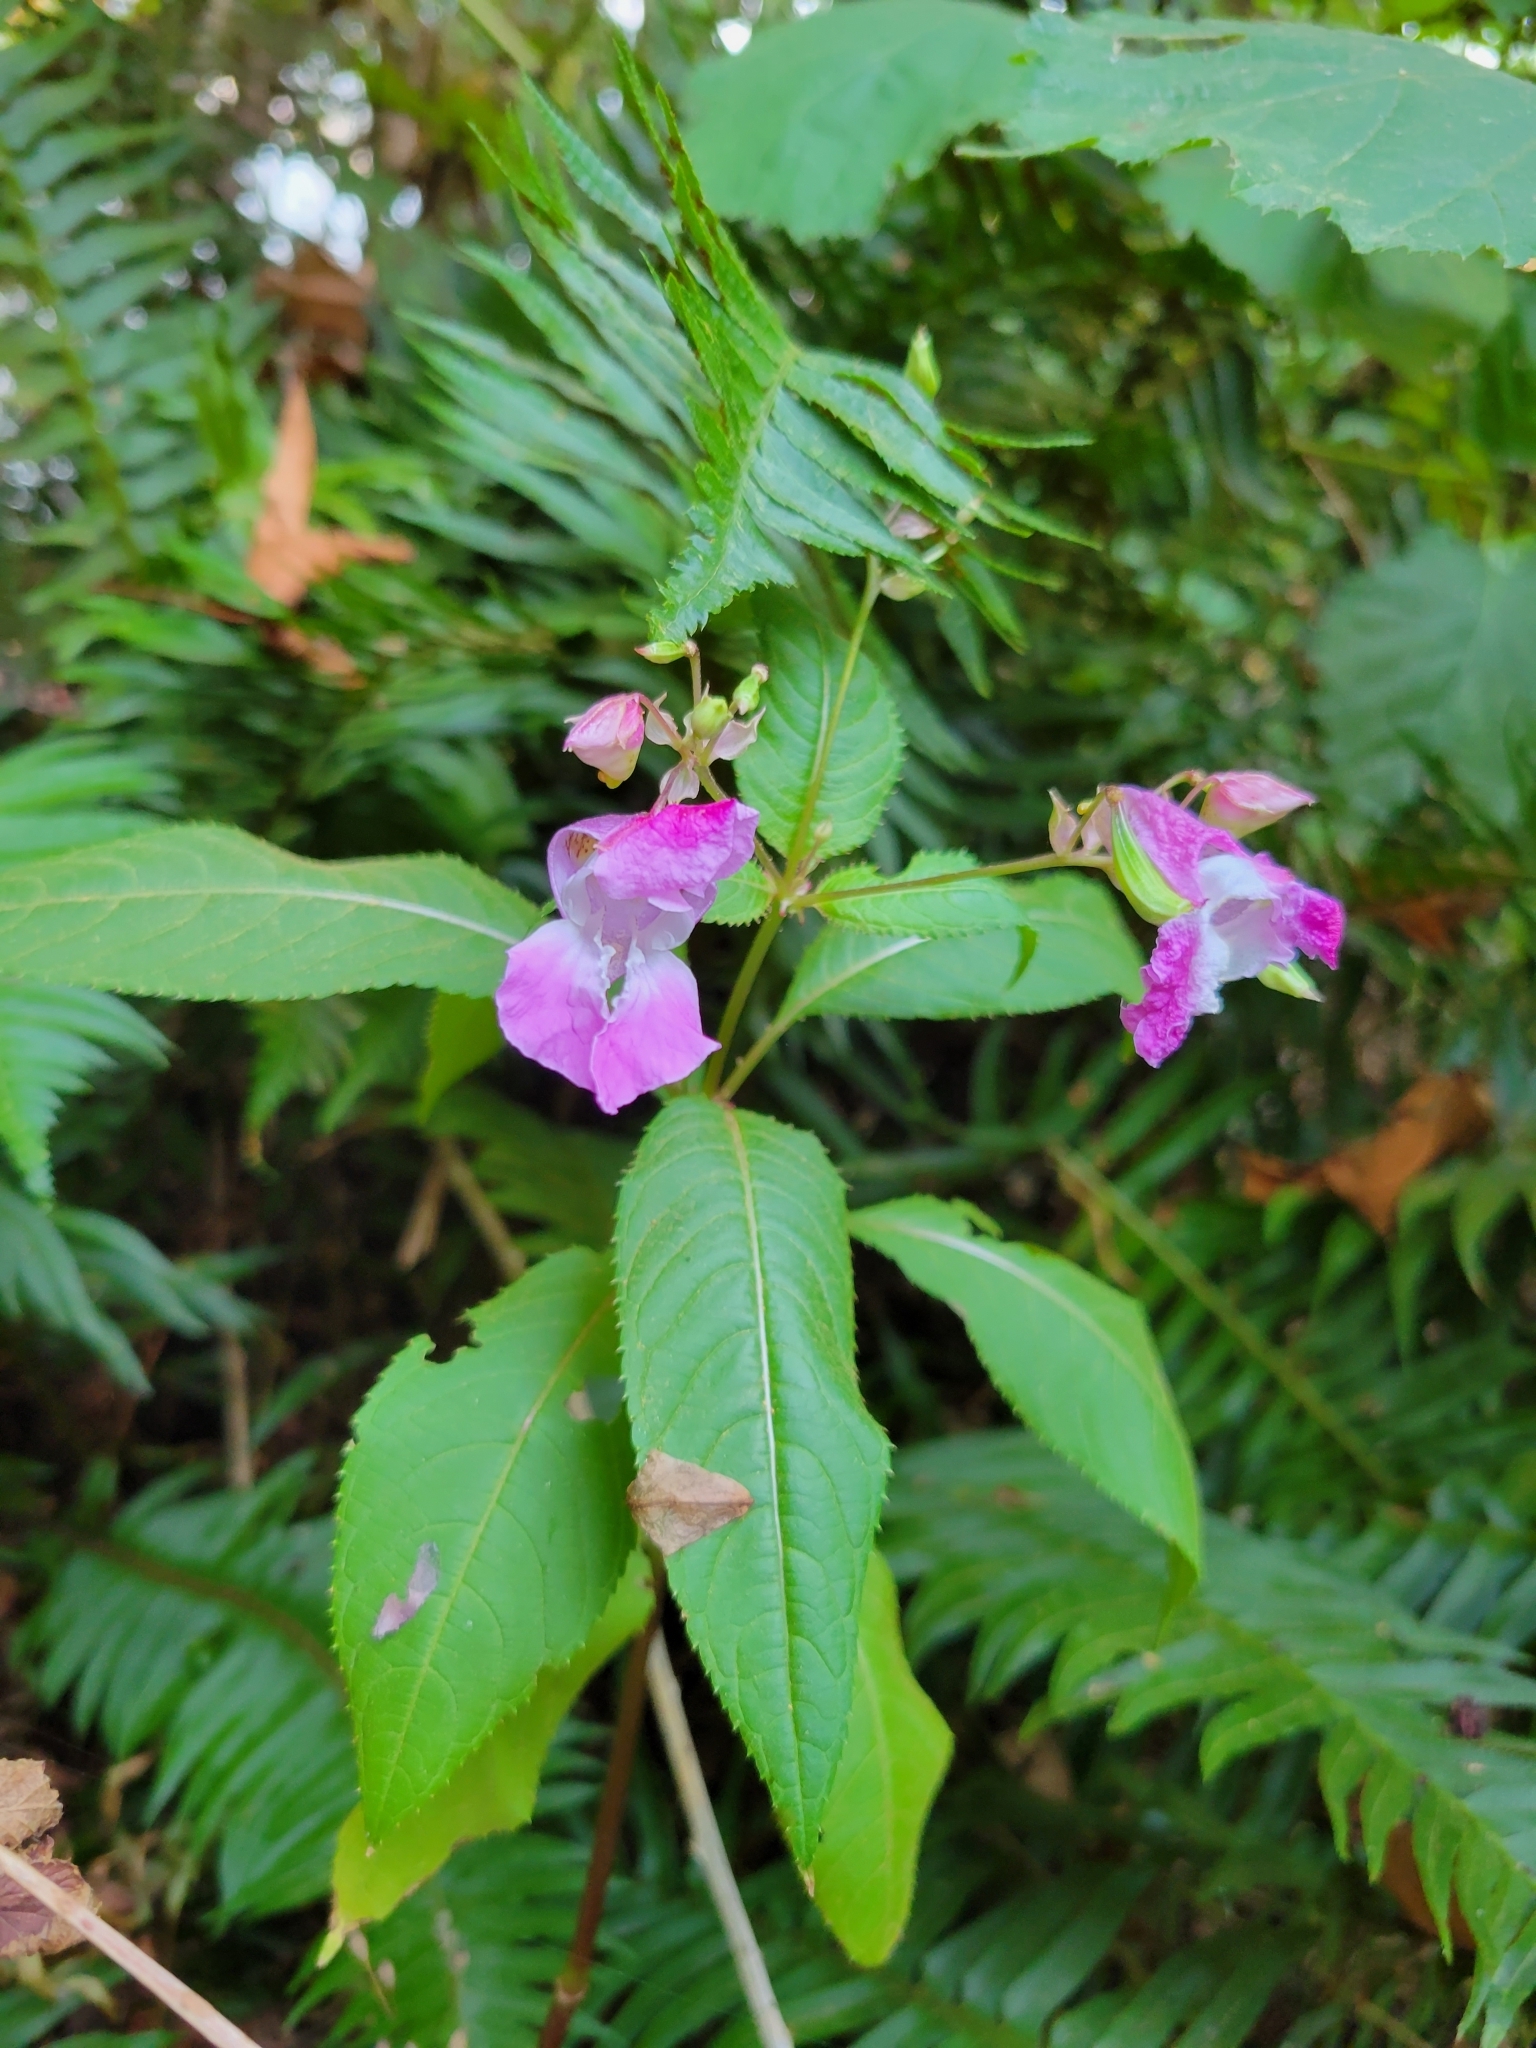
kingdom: Plantae
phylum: Tracheophyta
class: Magnoliopsida
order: Ericales
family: Balsaminaceae
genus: Impatiens
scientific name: Impatiens glandulifera
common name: Himalayan balsam
